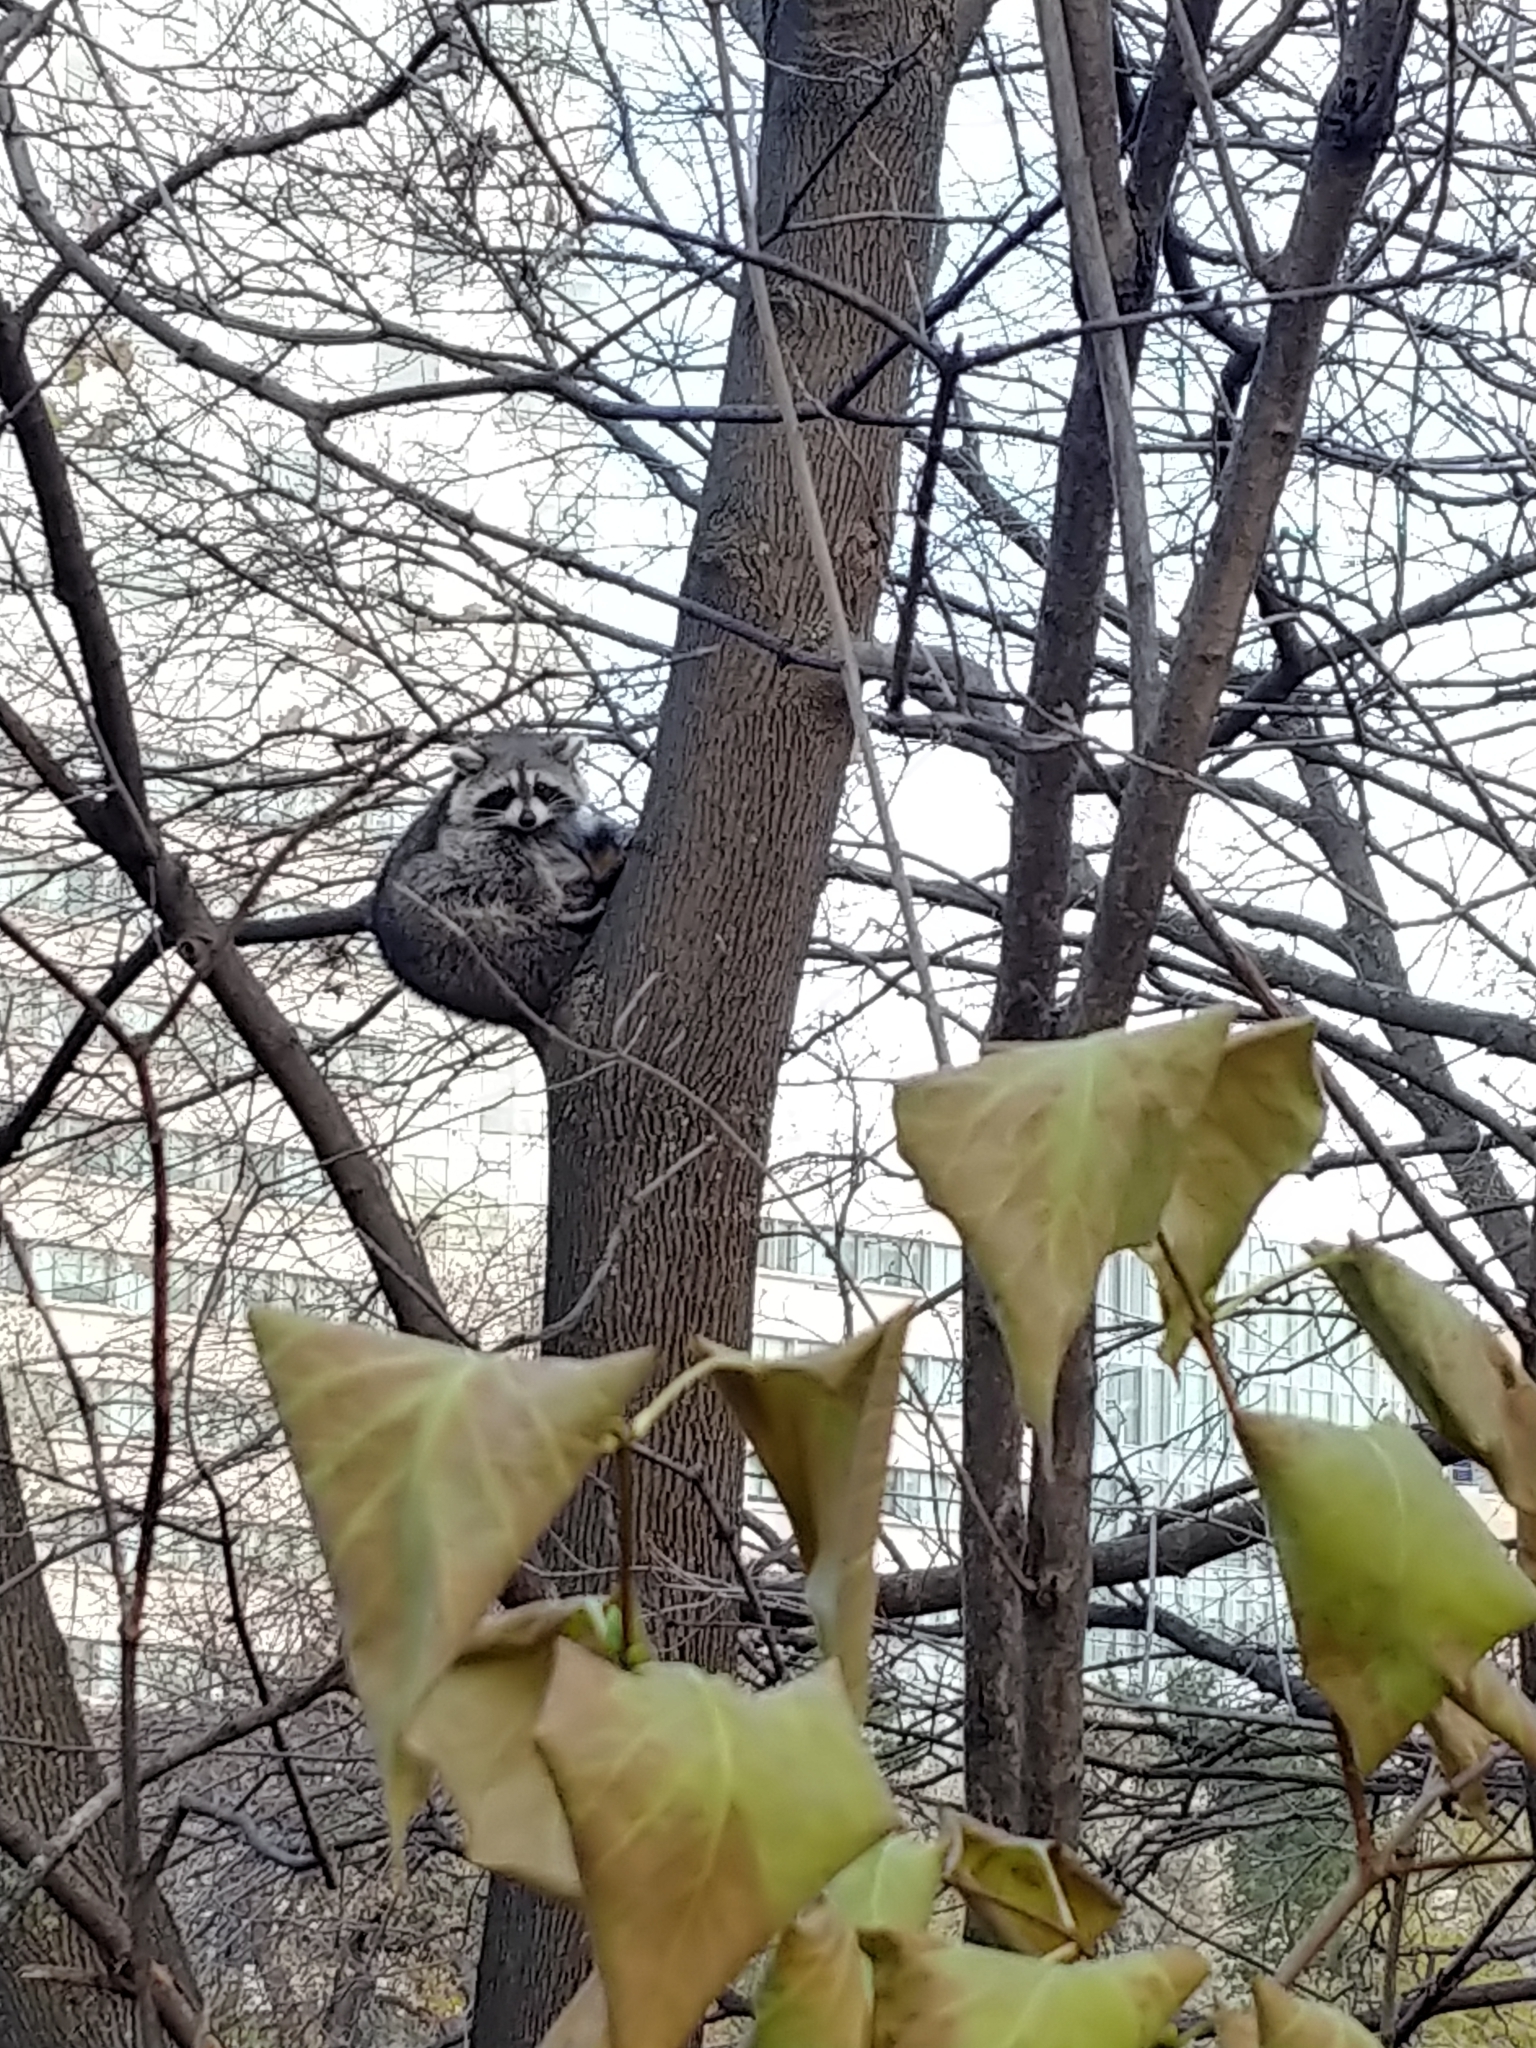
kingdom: Animalia
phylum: Chordata
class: Mammalia
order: Carnivora
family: Procyonidae
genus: Procyon
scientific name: Procyon lotor
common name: Raccoon
